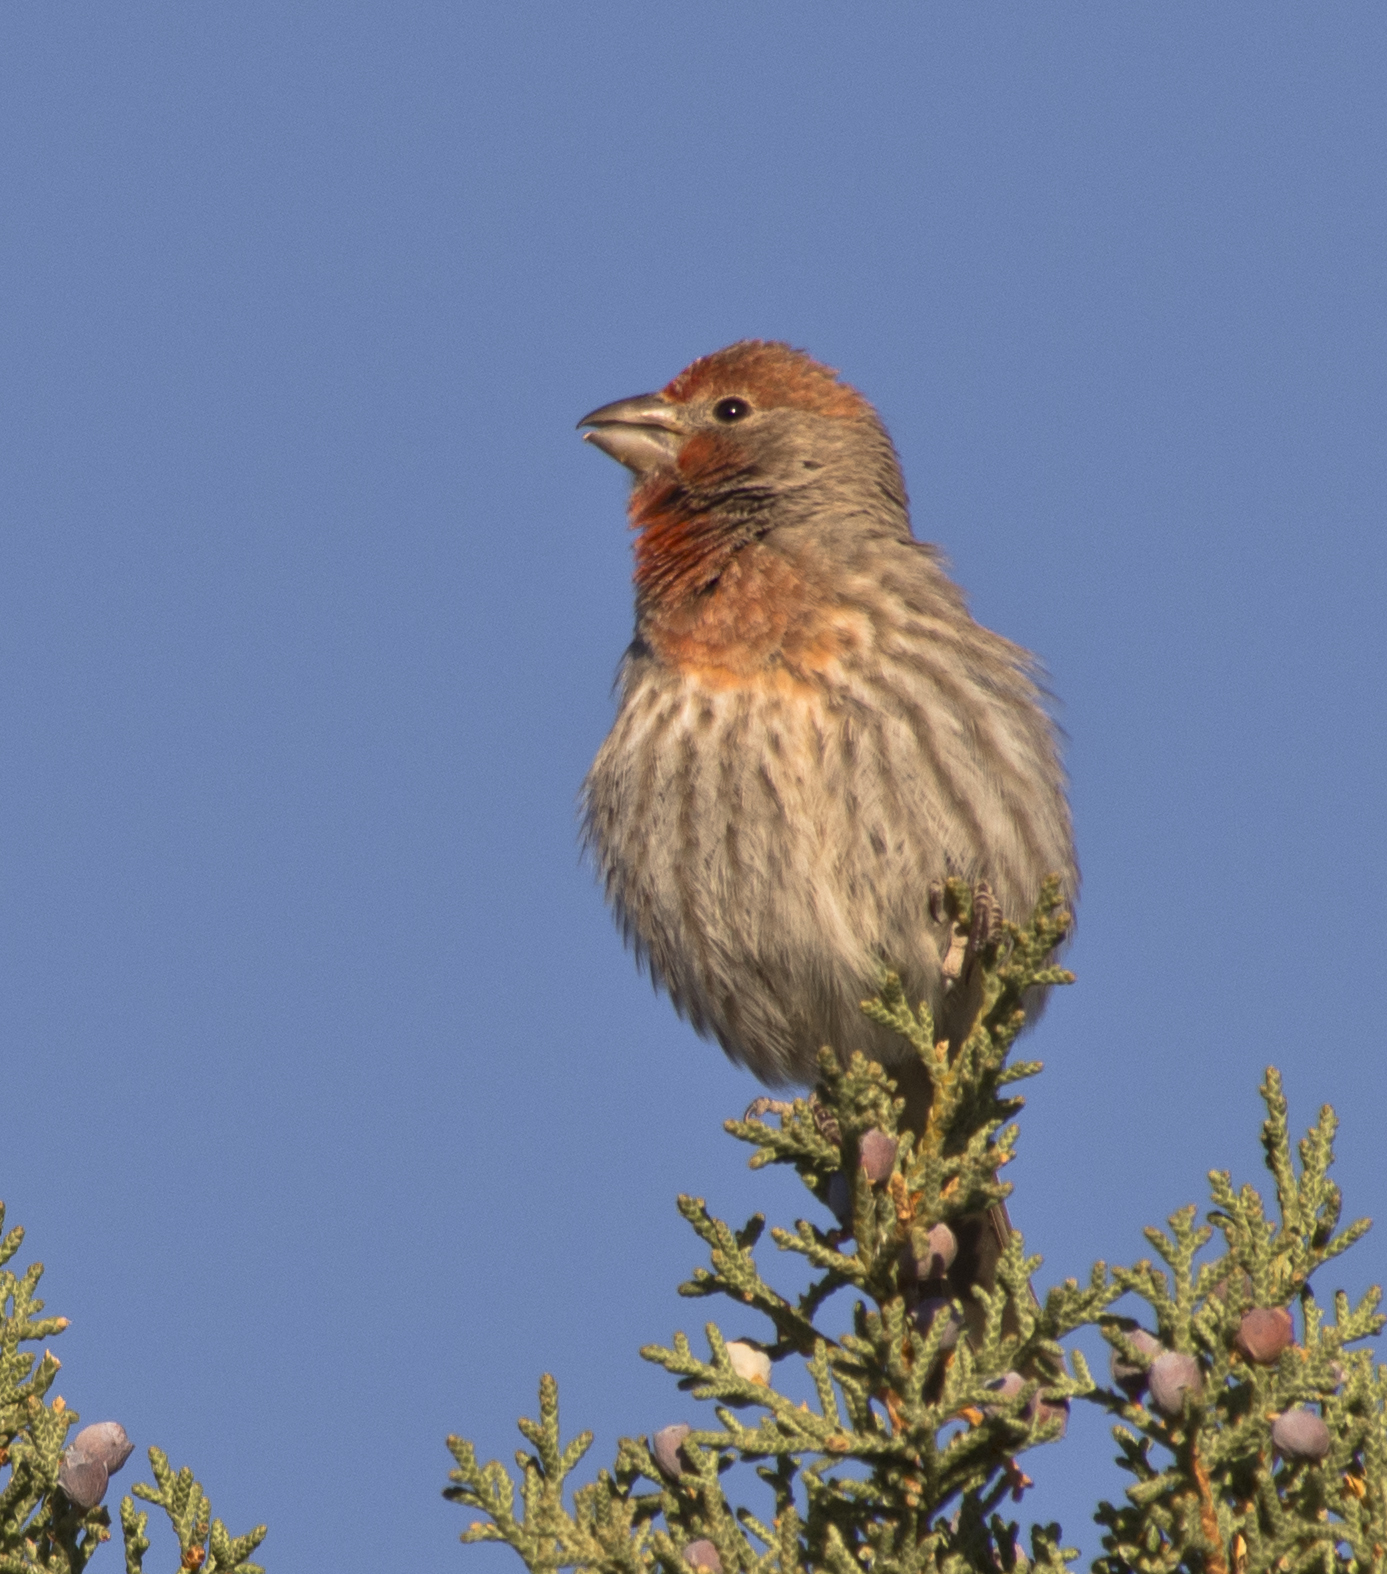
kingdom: Animalia
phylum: Chordata
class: Aves
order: Passeriformes
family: Fringillidae
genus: Haemorhous
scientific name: Haemorhous mexicanus
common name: House finch
